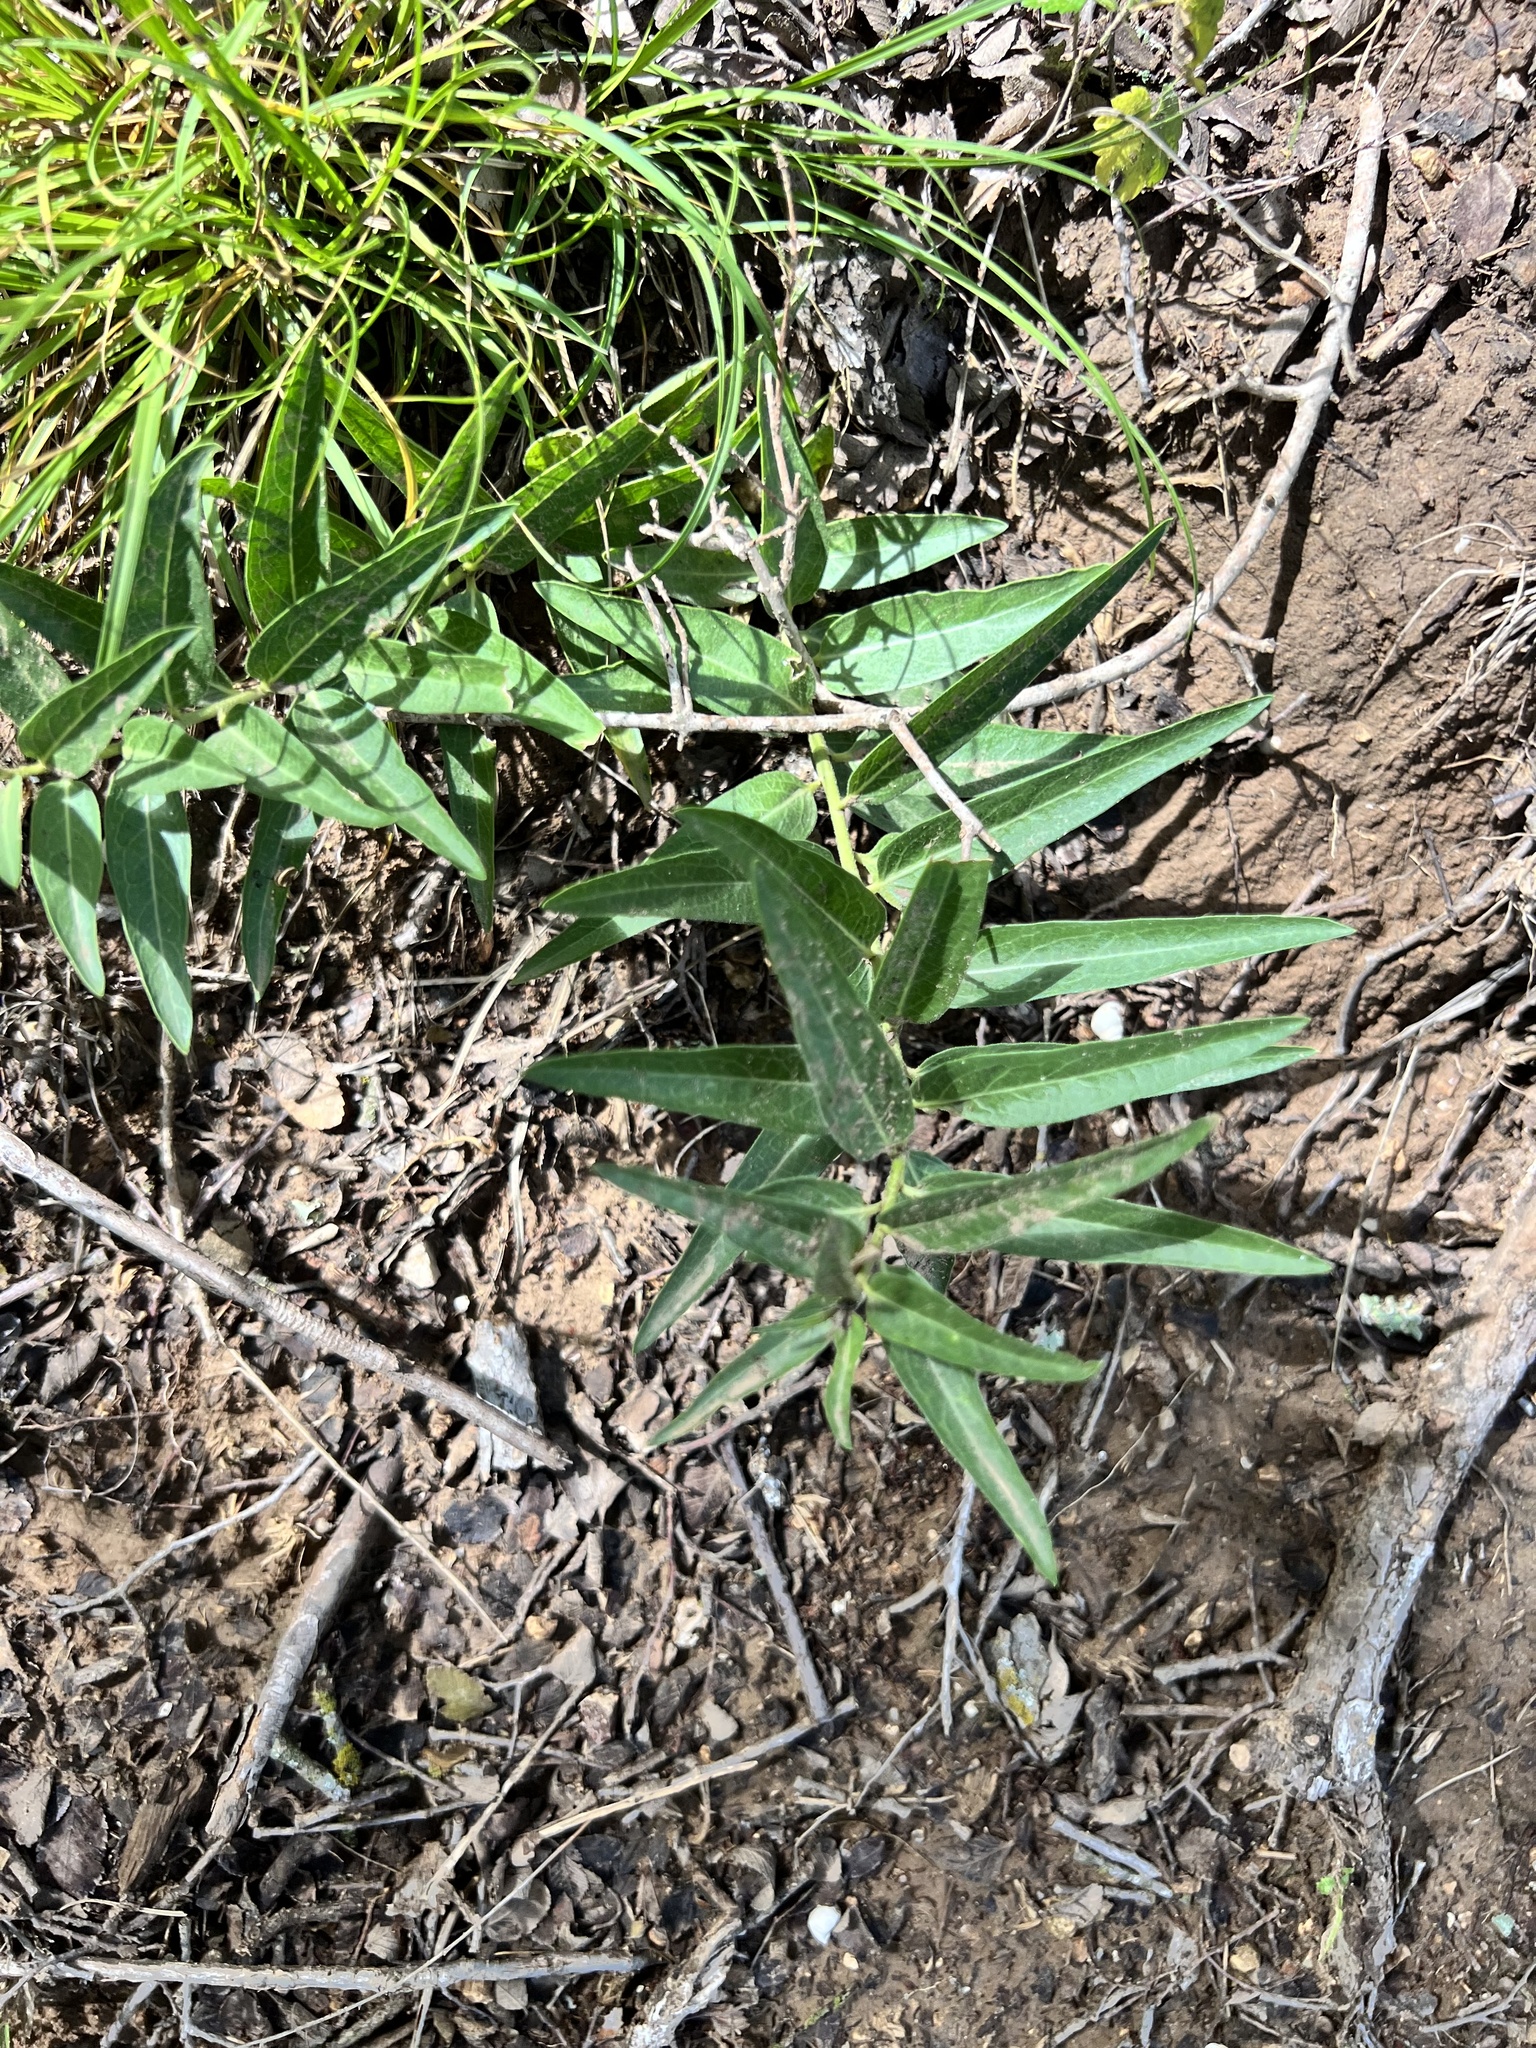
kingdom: Plantae
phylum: Tracheophyta
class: Magnoliopsida
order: Gentianales
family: Apocynaceae
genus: Asclepias
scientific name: Asclepias asperula
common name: Antelope horns
